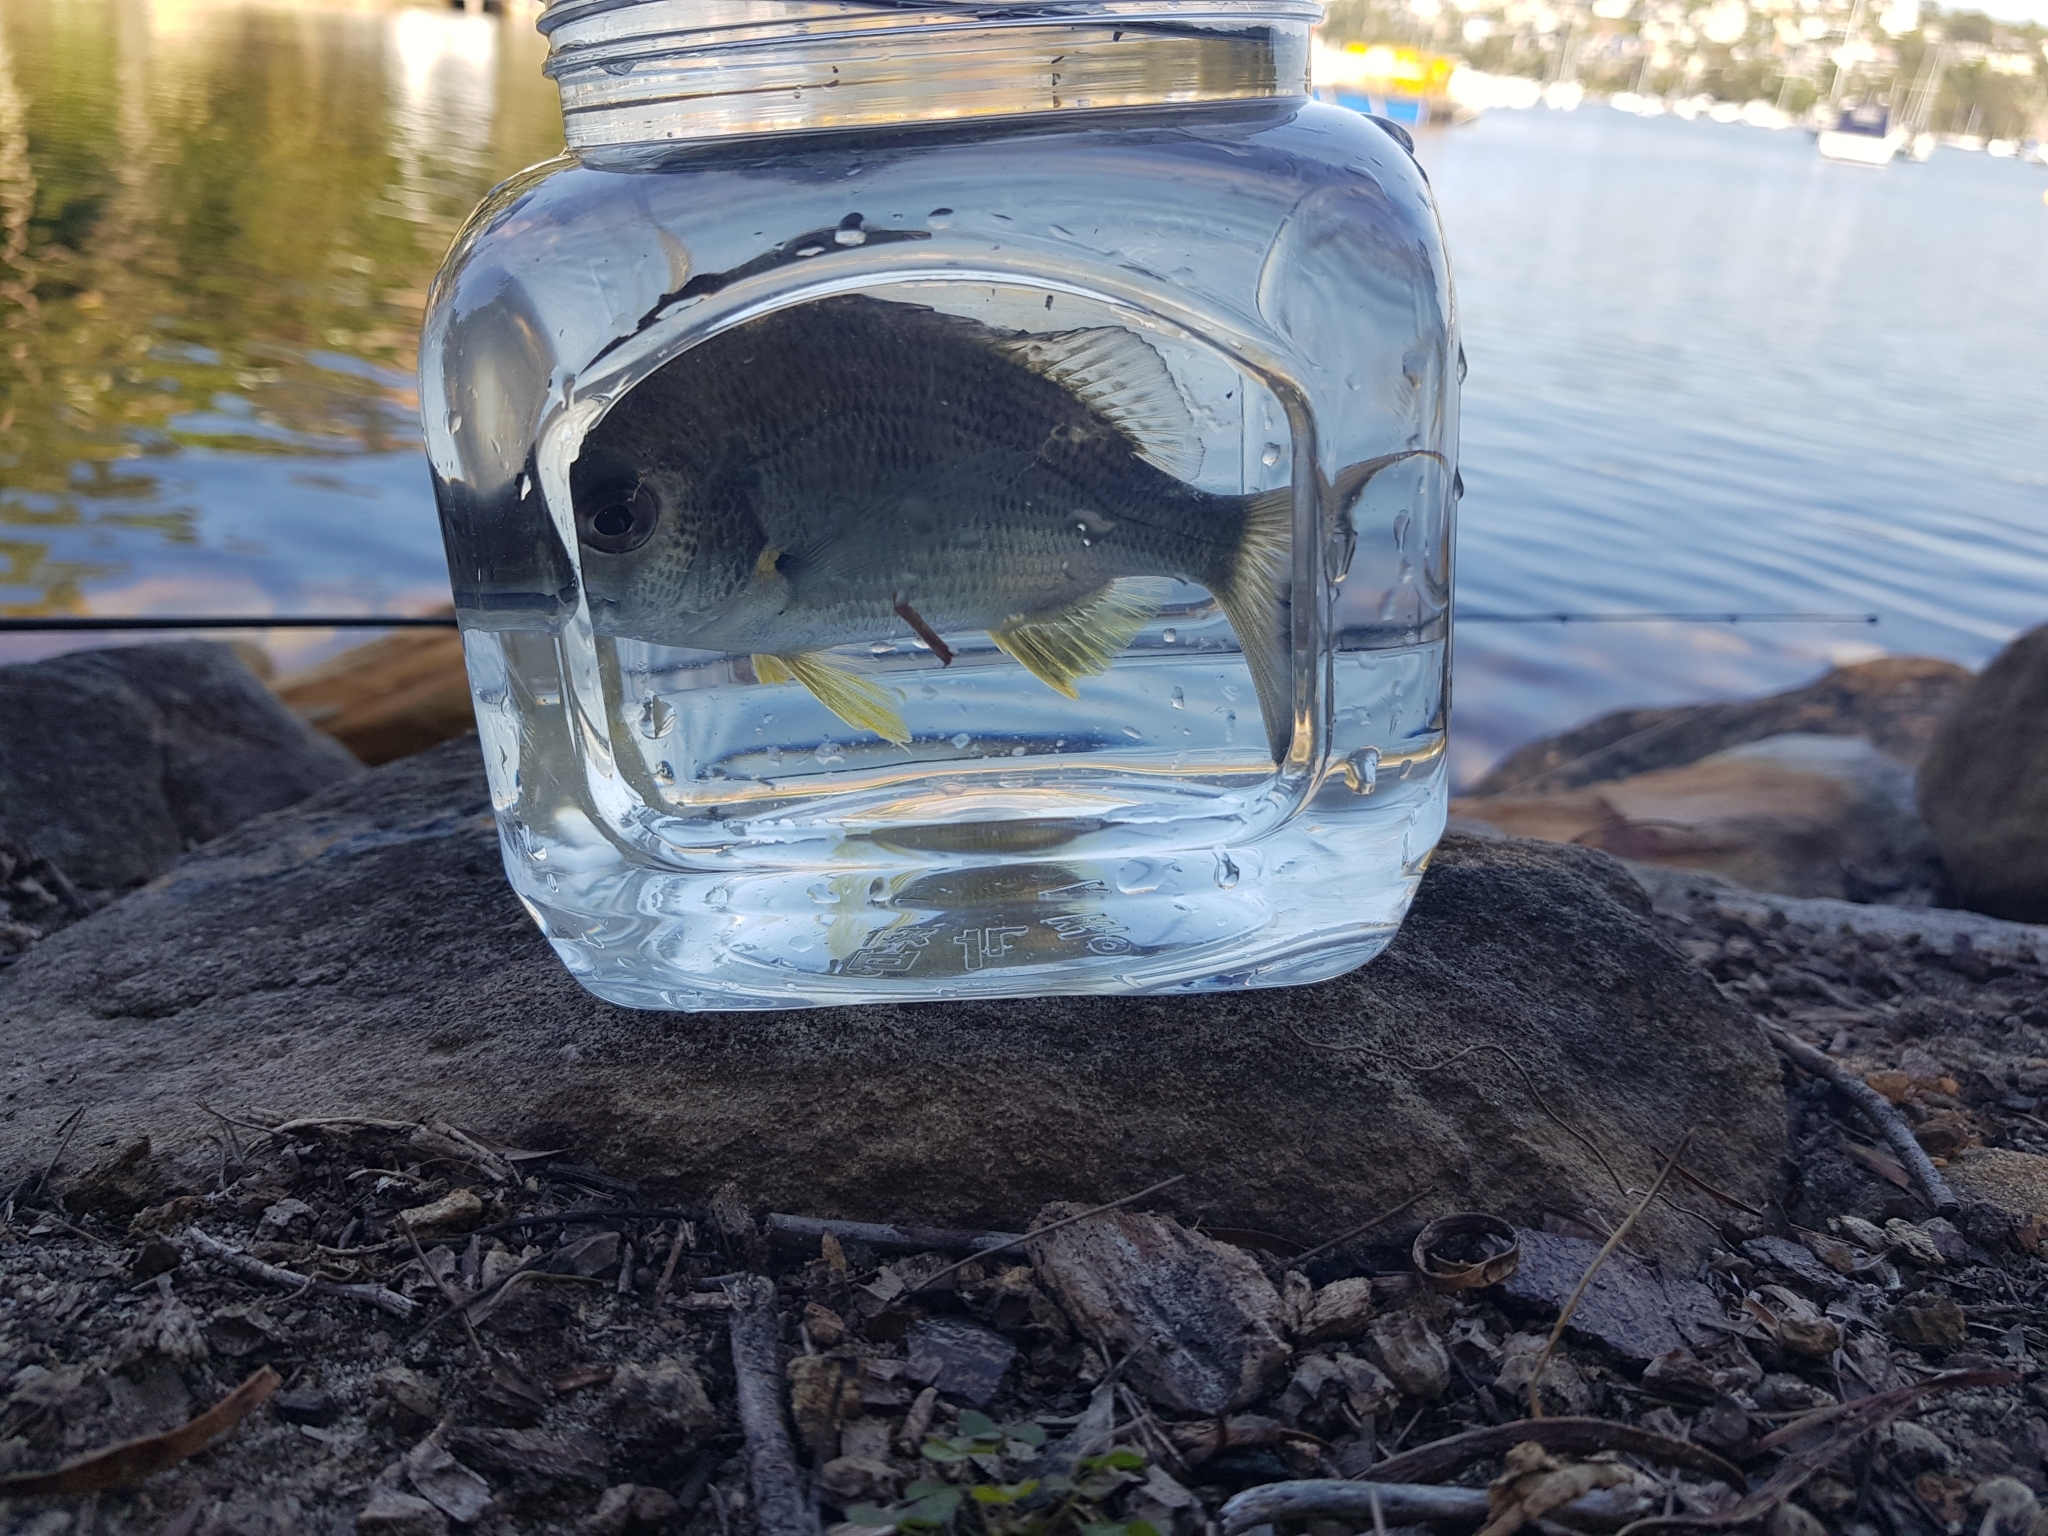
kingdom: Animalia
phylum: Chordata
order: Perciformes
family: Sparidae
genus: Acanthopagrus
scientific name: Acanthopagrus australis
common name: Surf bream
